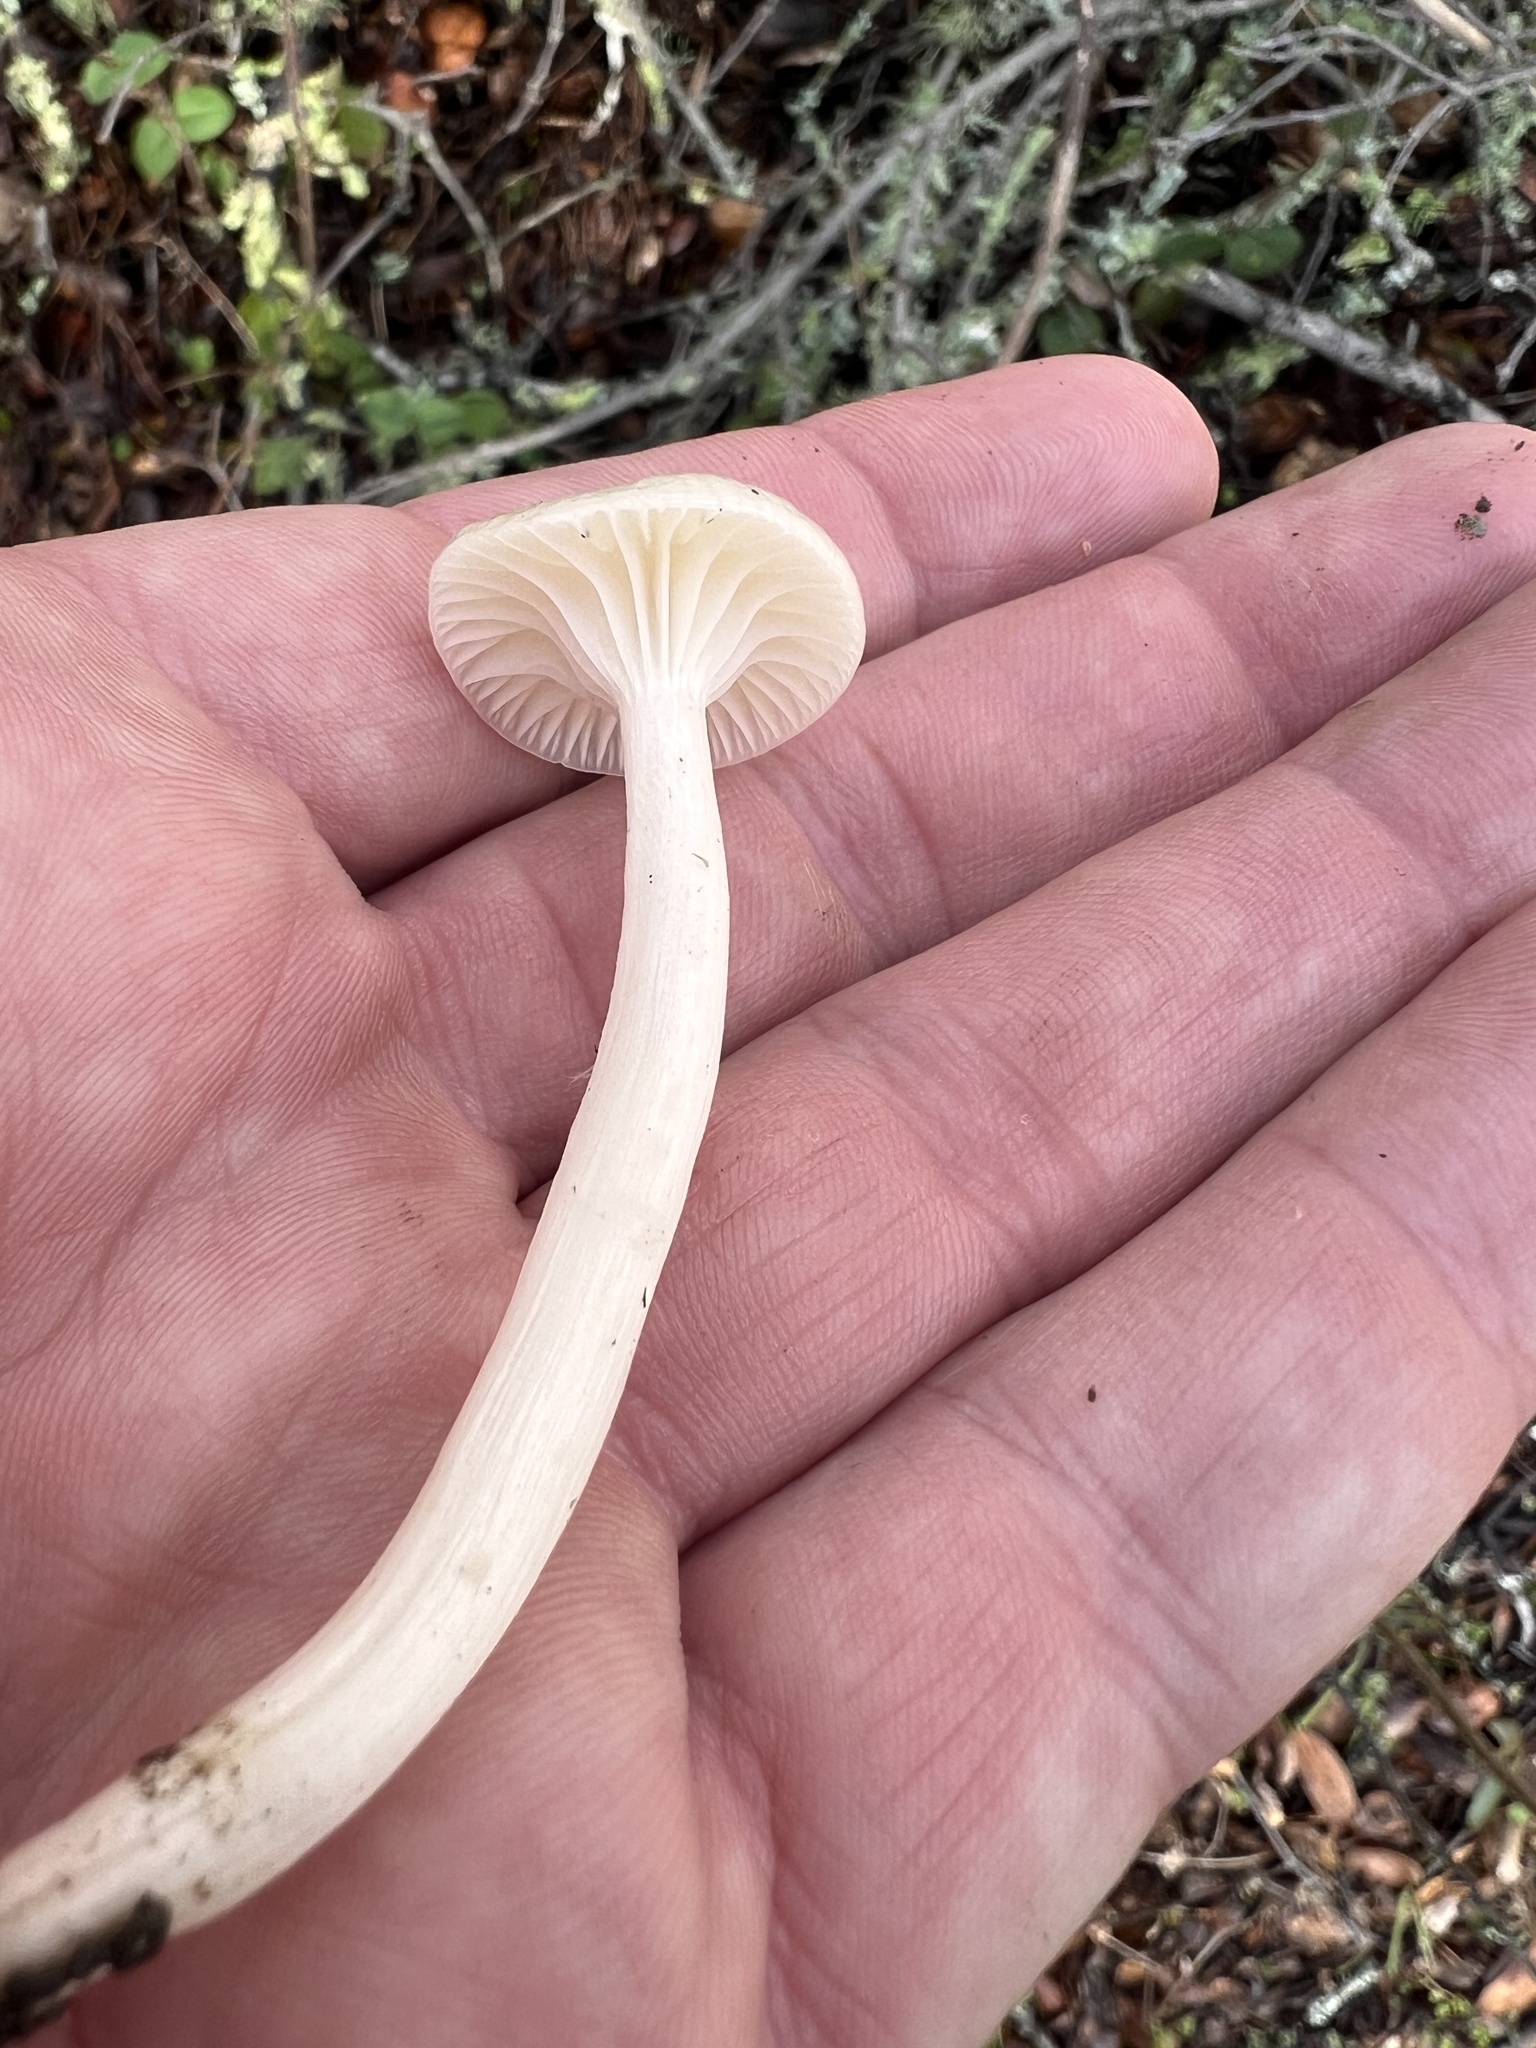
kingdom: Fungi
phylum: Basidiomycota
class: Agaricomycetes
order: Agaricales
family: Hygrophoraceae
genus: Cuphophyllus
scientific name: Cuphophyllus virgineus
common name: Snowy waxcap
